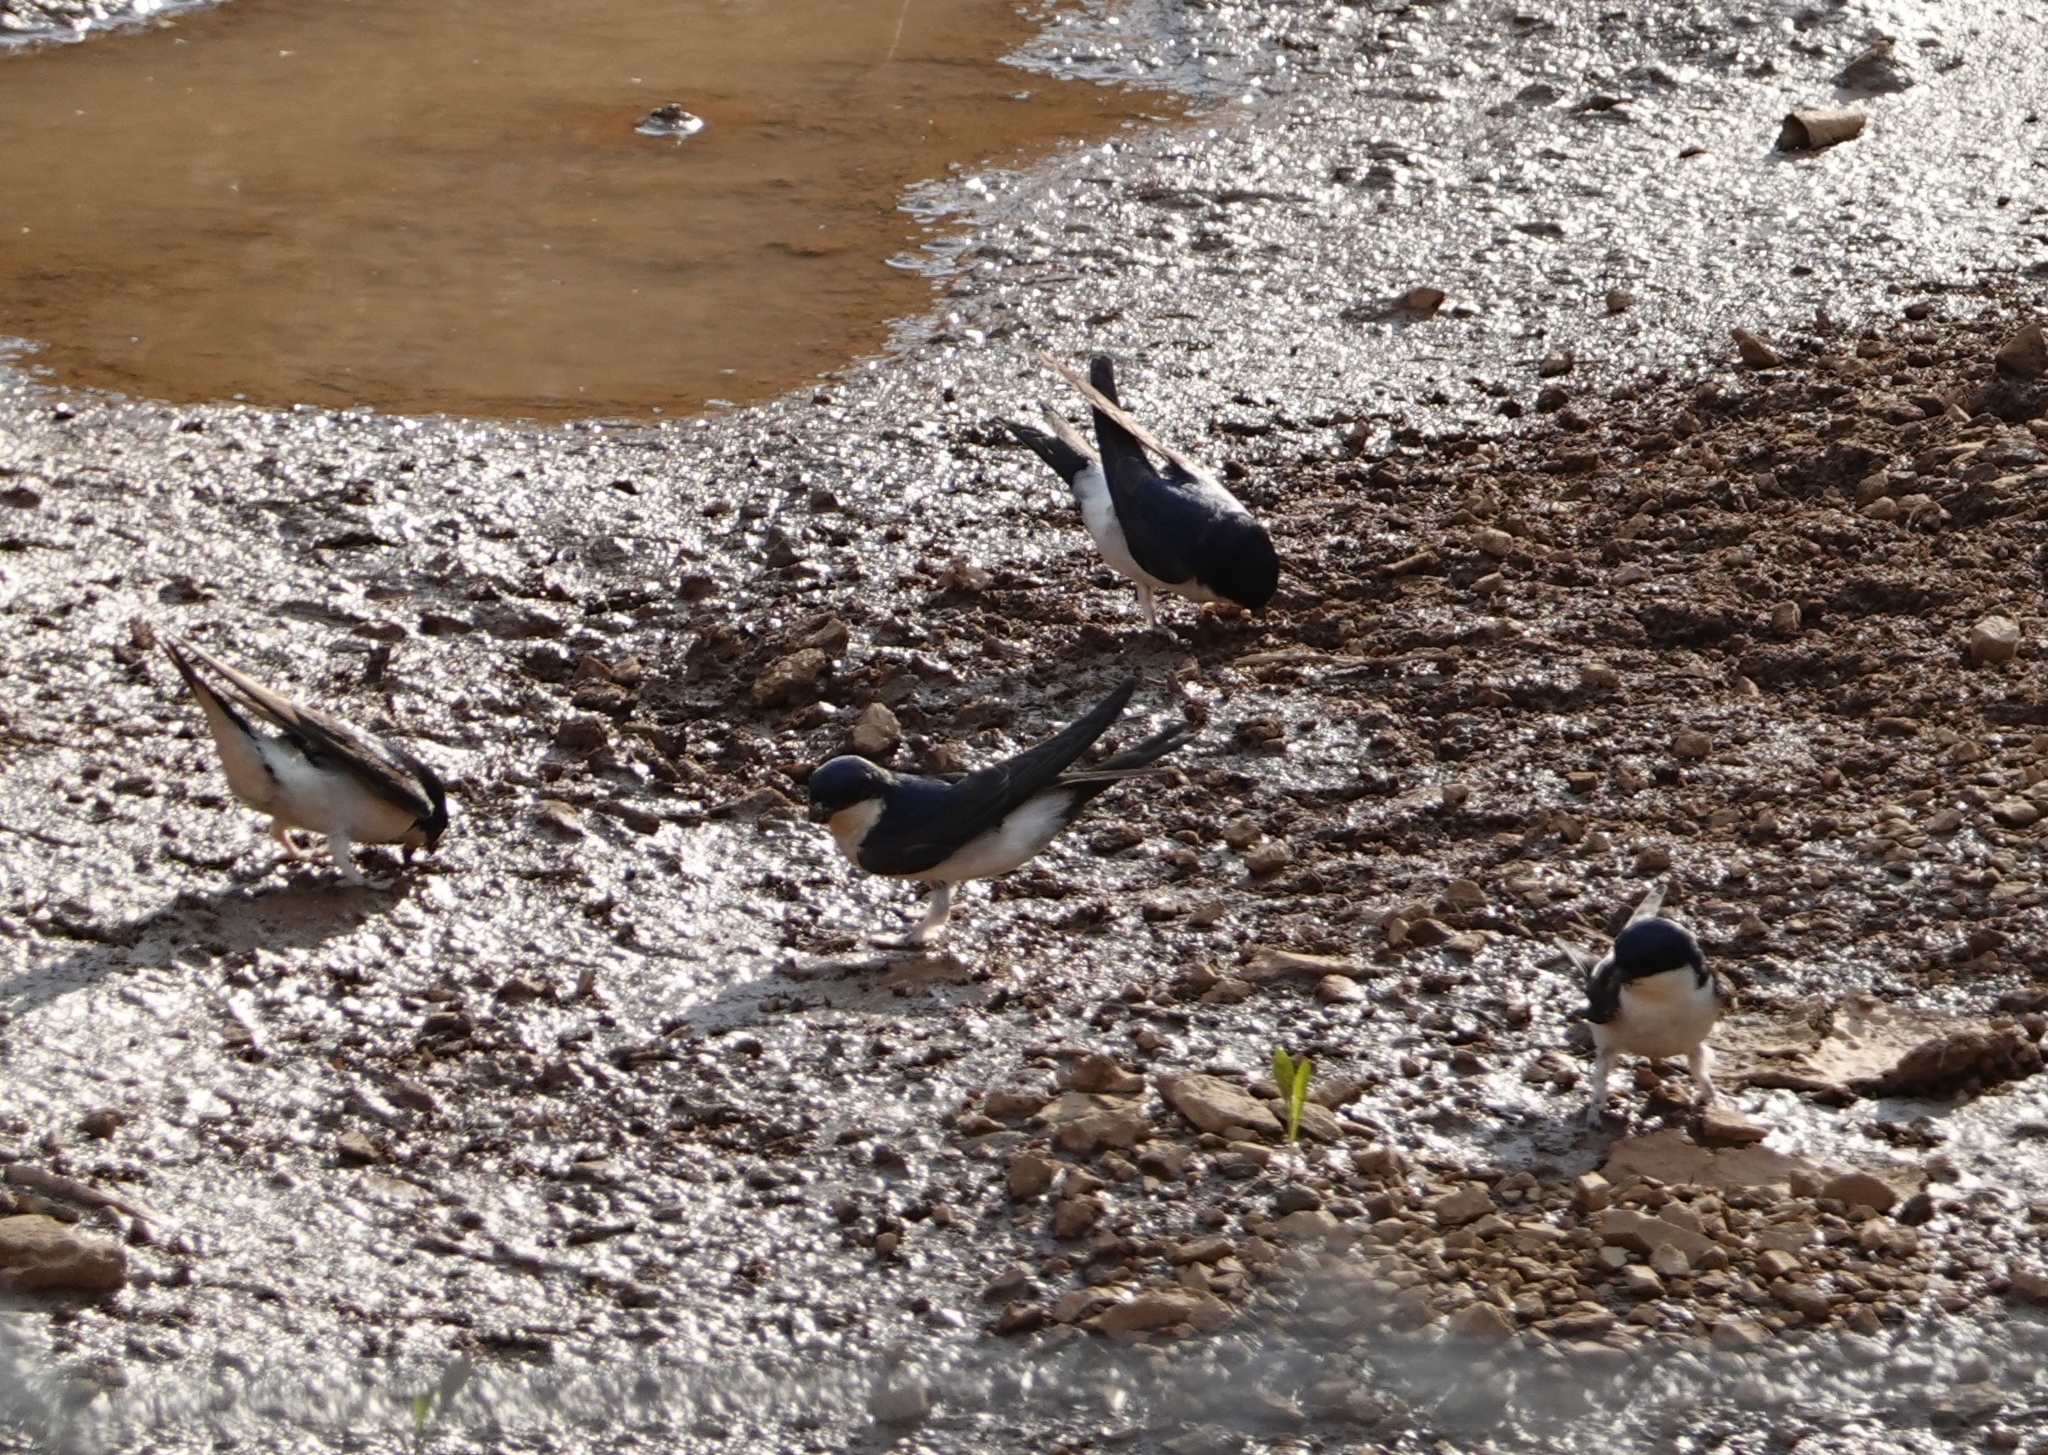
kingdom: Animalia
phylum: Chordata
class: Aves
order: Passeriformes
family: Hirundinidae
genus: Delichon
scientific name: Delichon urbicum
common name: Common house martin
